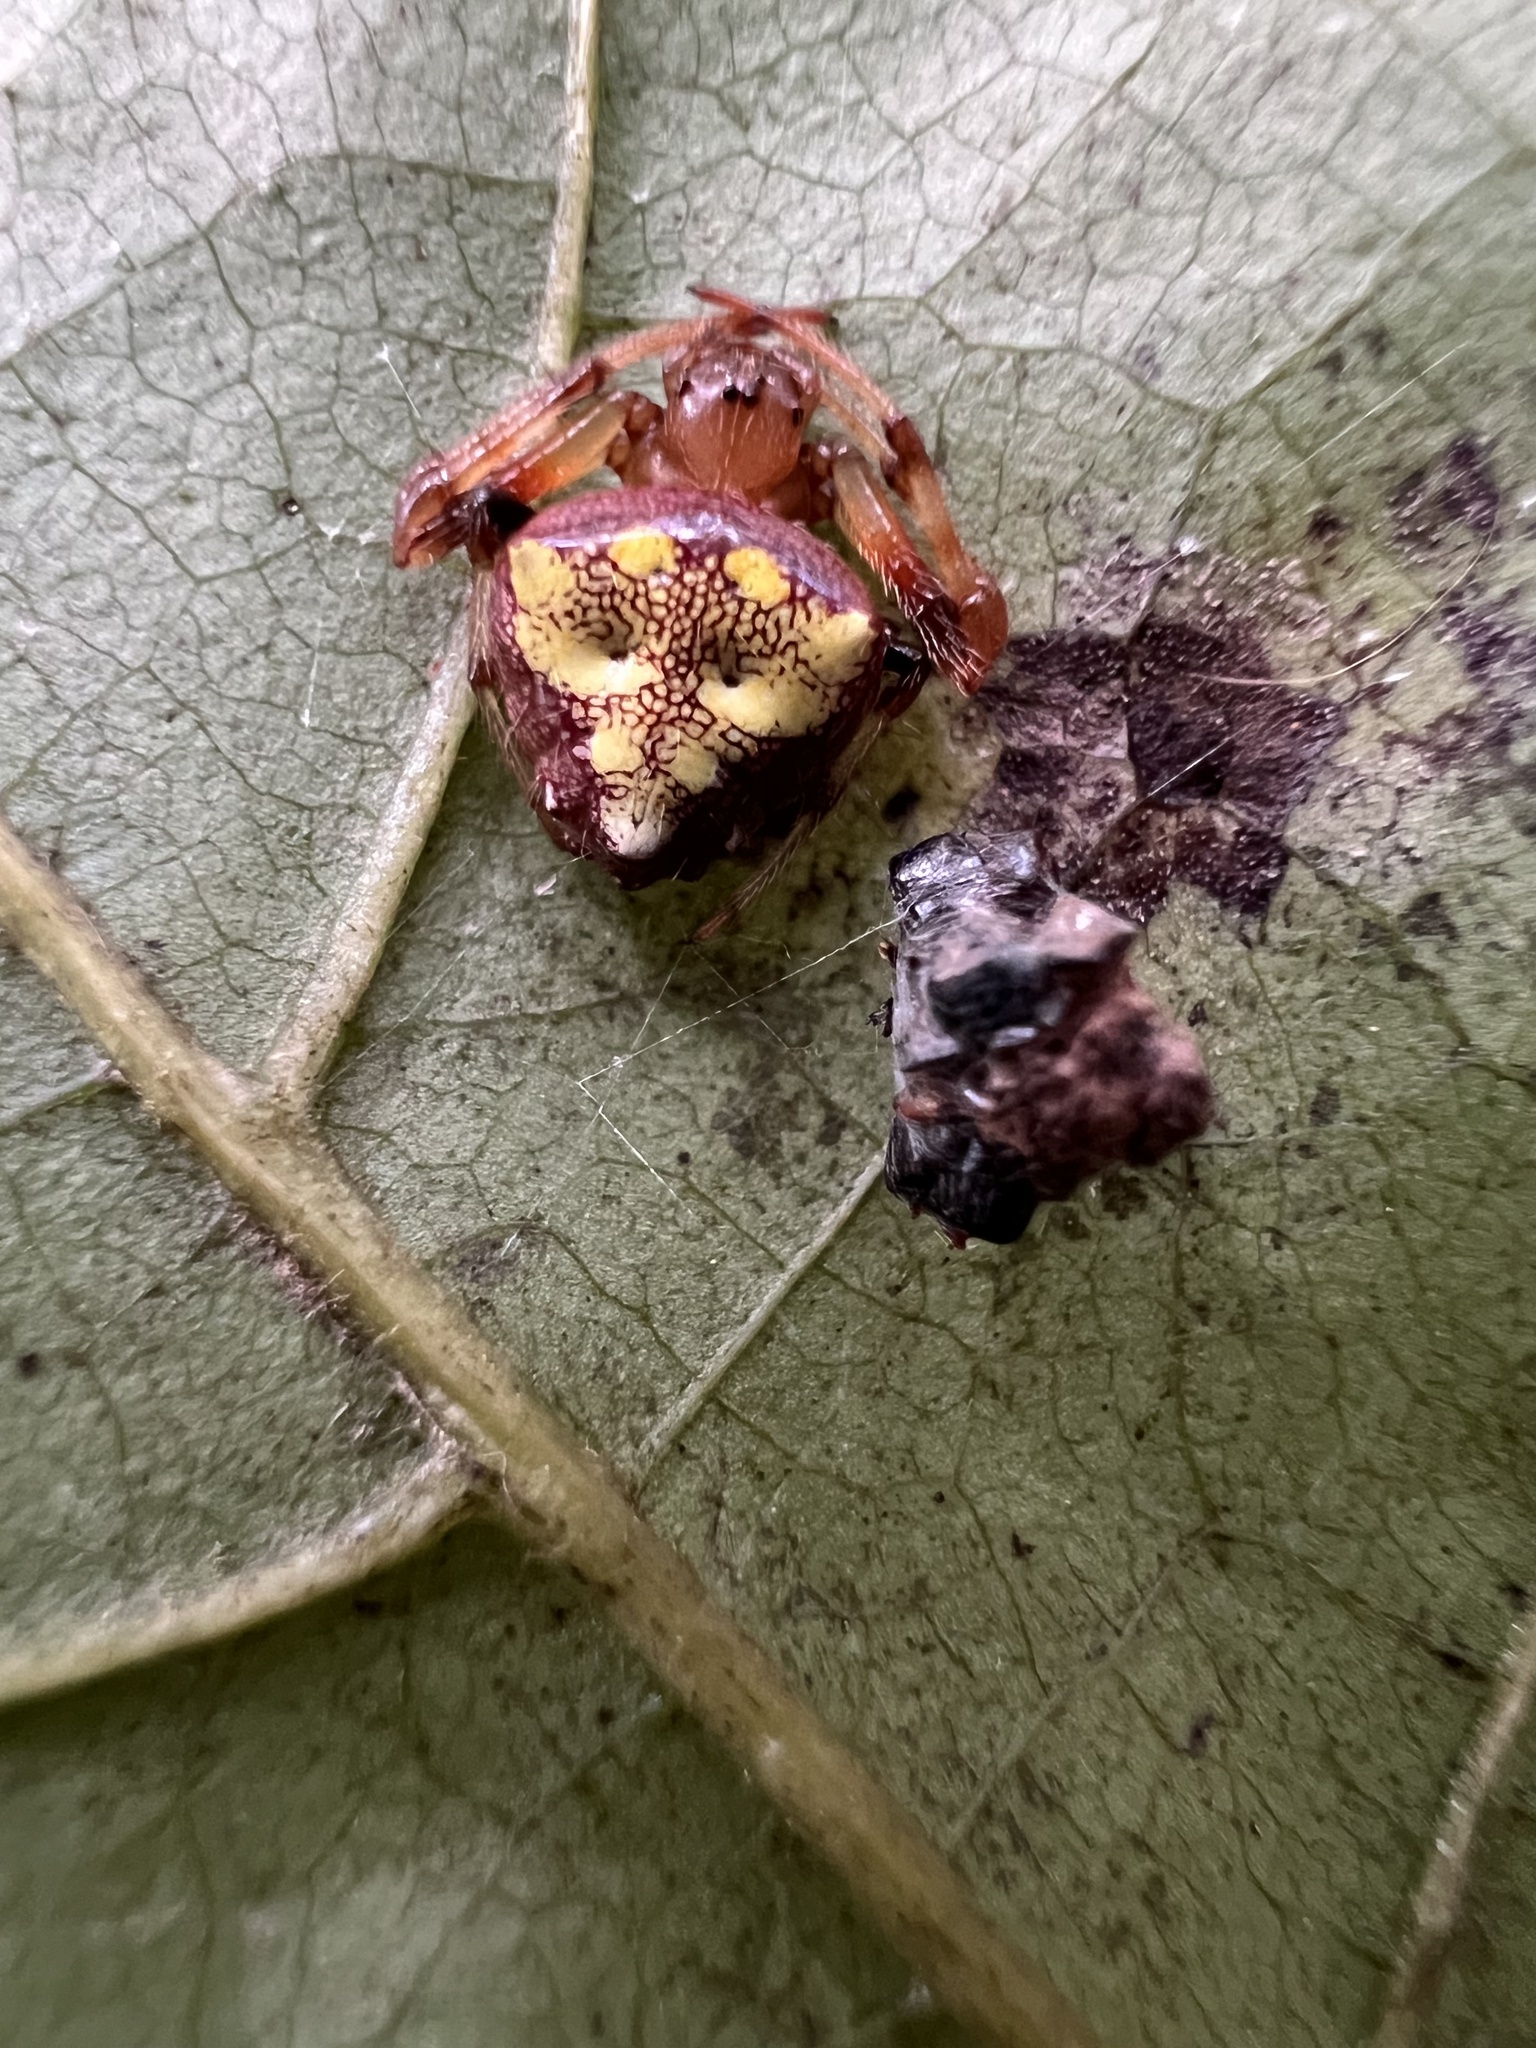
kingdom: Animalia
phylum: Arthropoda
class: Arachnida
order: Araneae
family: Araneidae
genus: Verrucosa
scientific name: Verrucosa arenata
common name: Orb weavers
